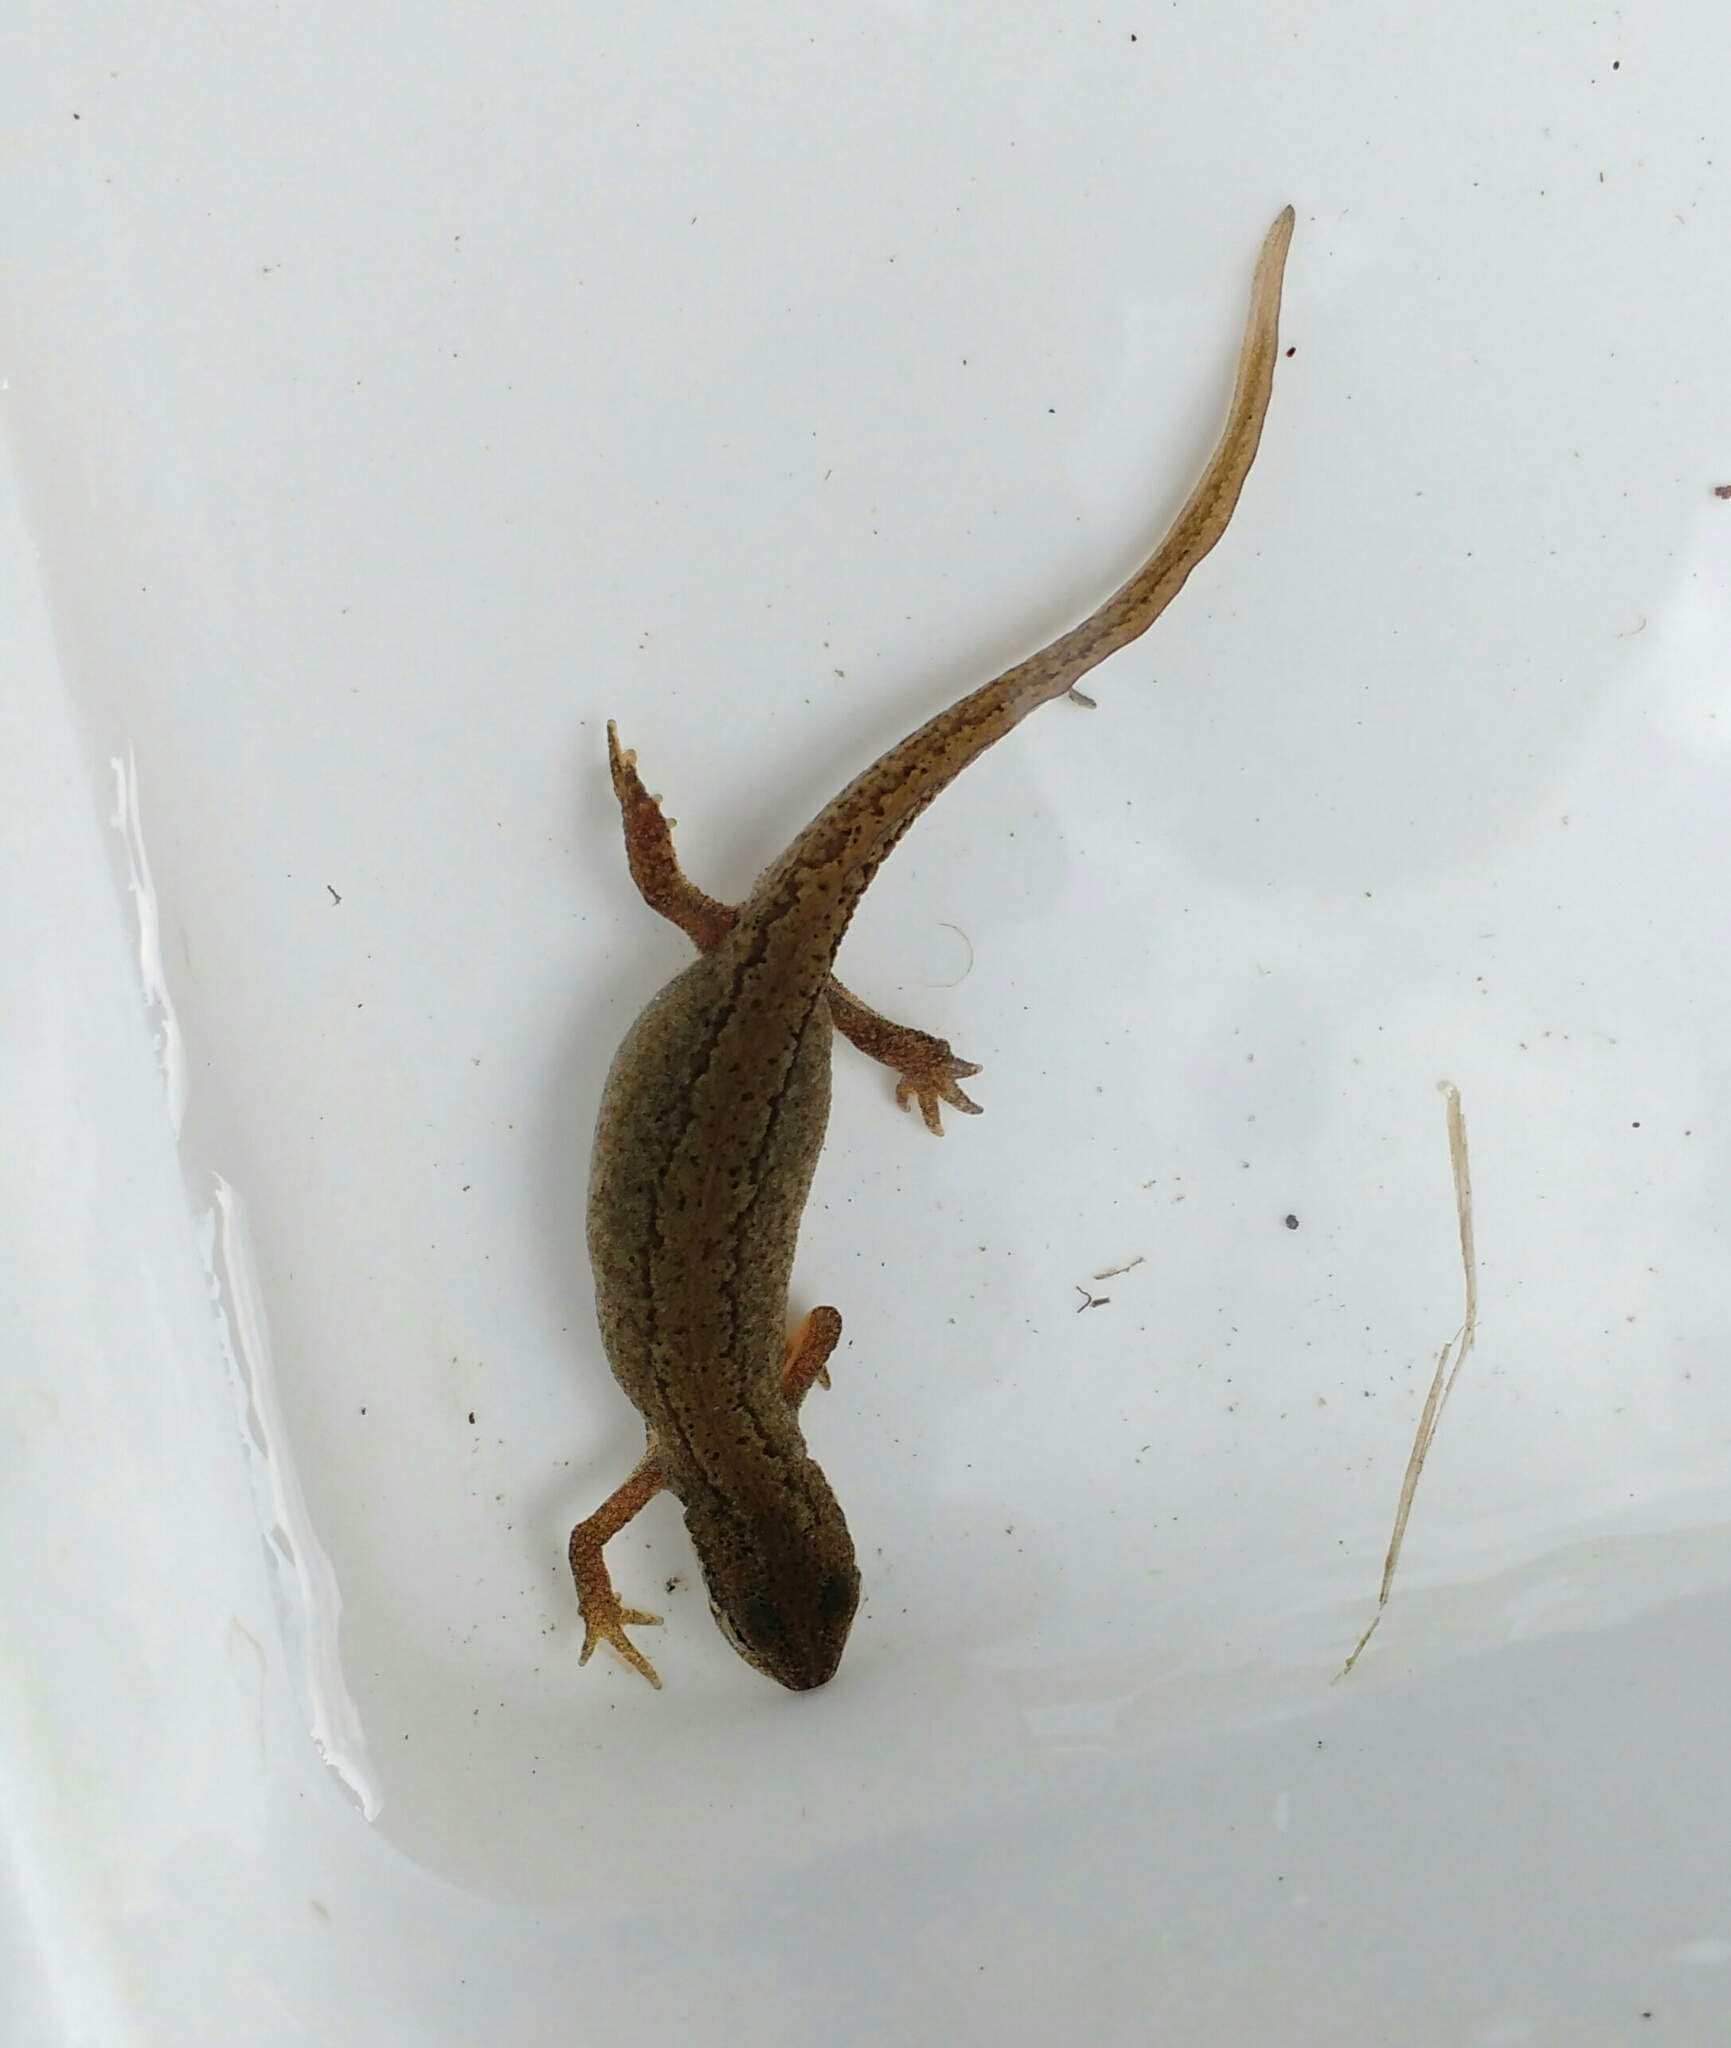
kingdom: Animalia
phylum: Chordata
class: Amphibia
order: Caudata
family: Salamandridae
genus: Lissotriton
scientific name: Lissotriton vulgaris
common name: Smooth newt
